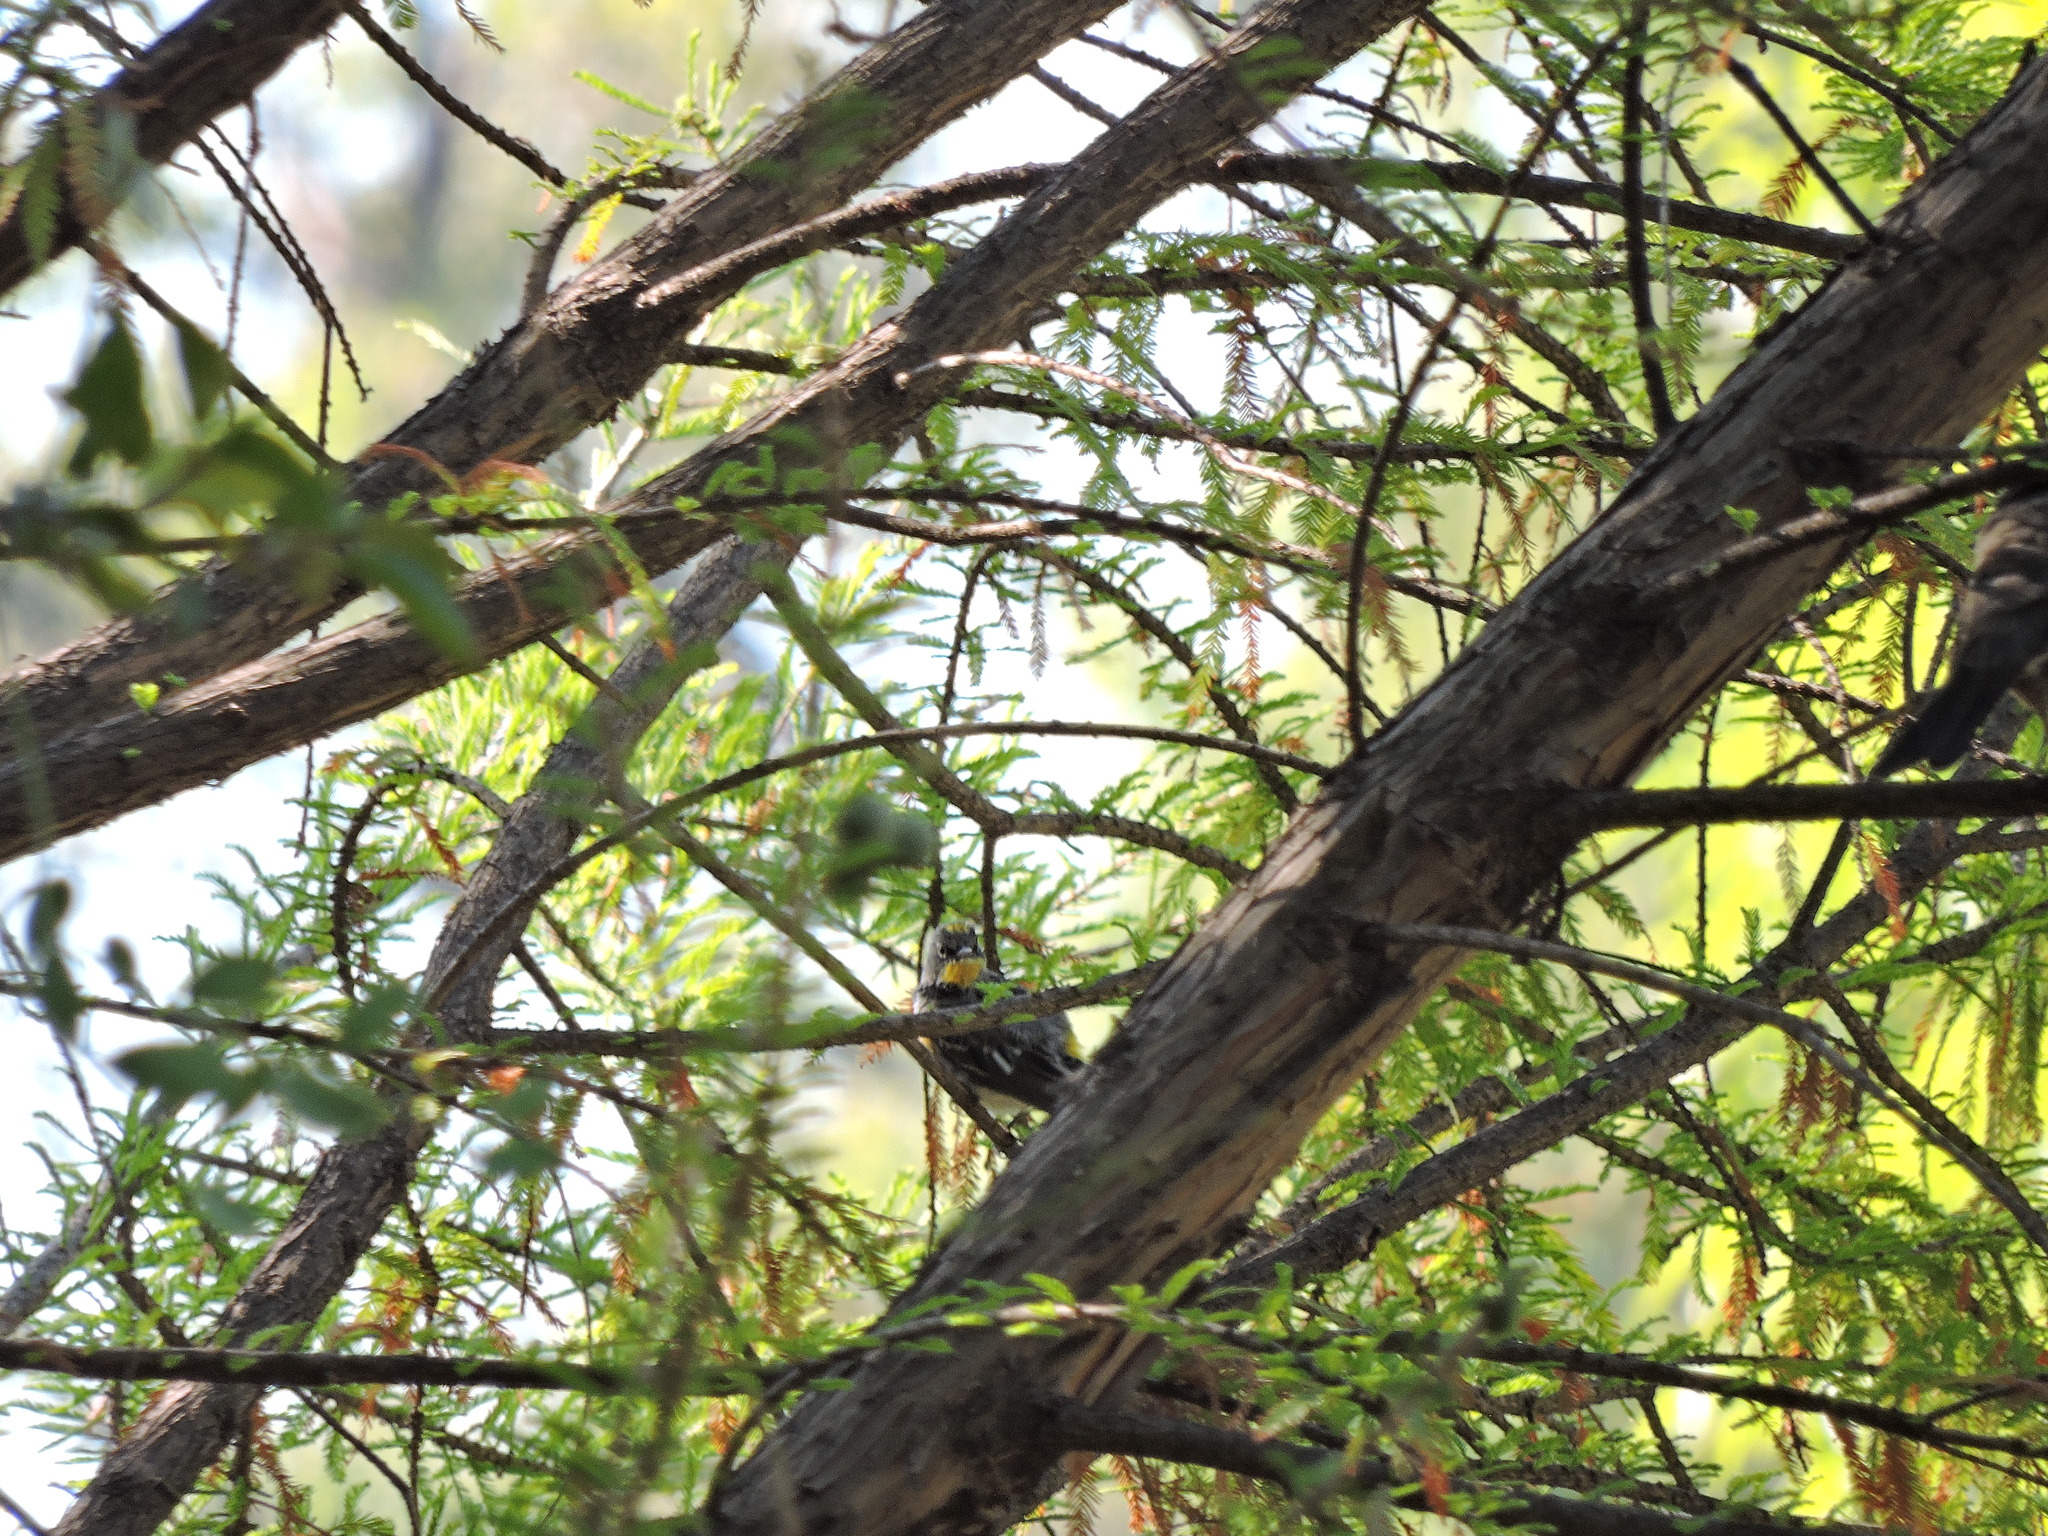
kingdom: Animalia
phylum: Chordata
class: Aves
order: Passeriformes
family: Parulidae
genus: Setophaga
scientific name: Setophaga coronata
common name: Myrtle warbler
